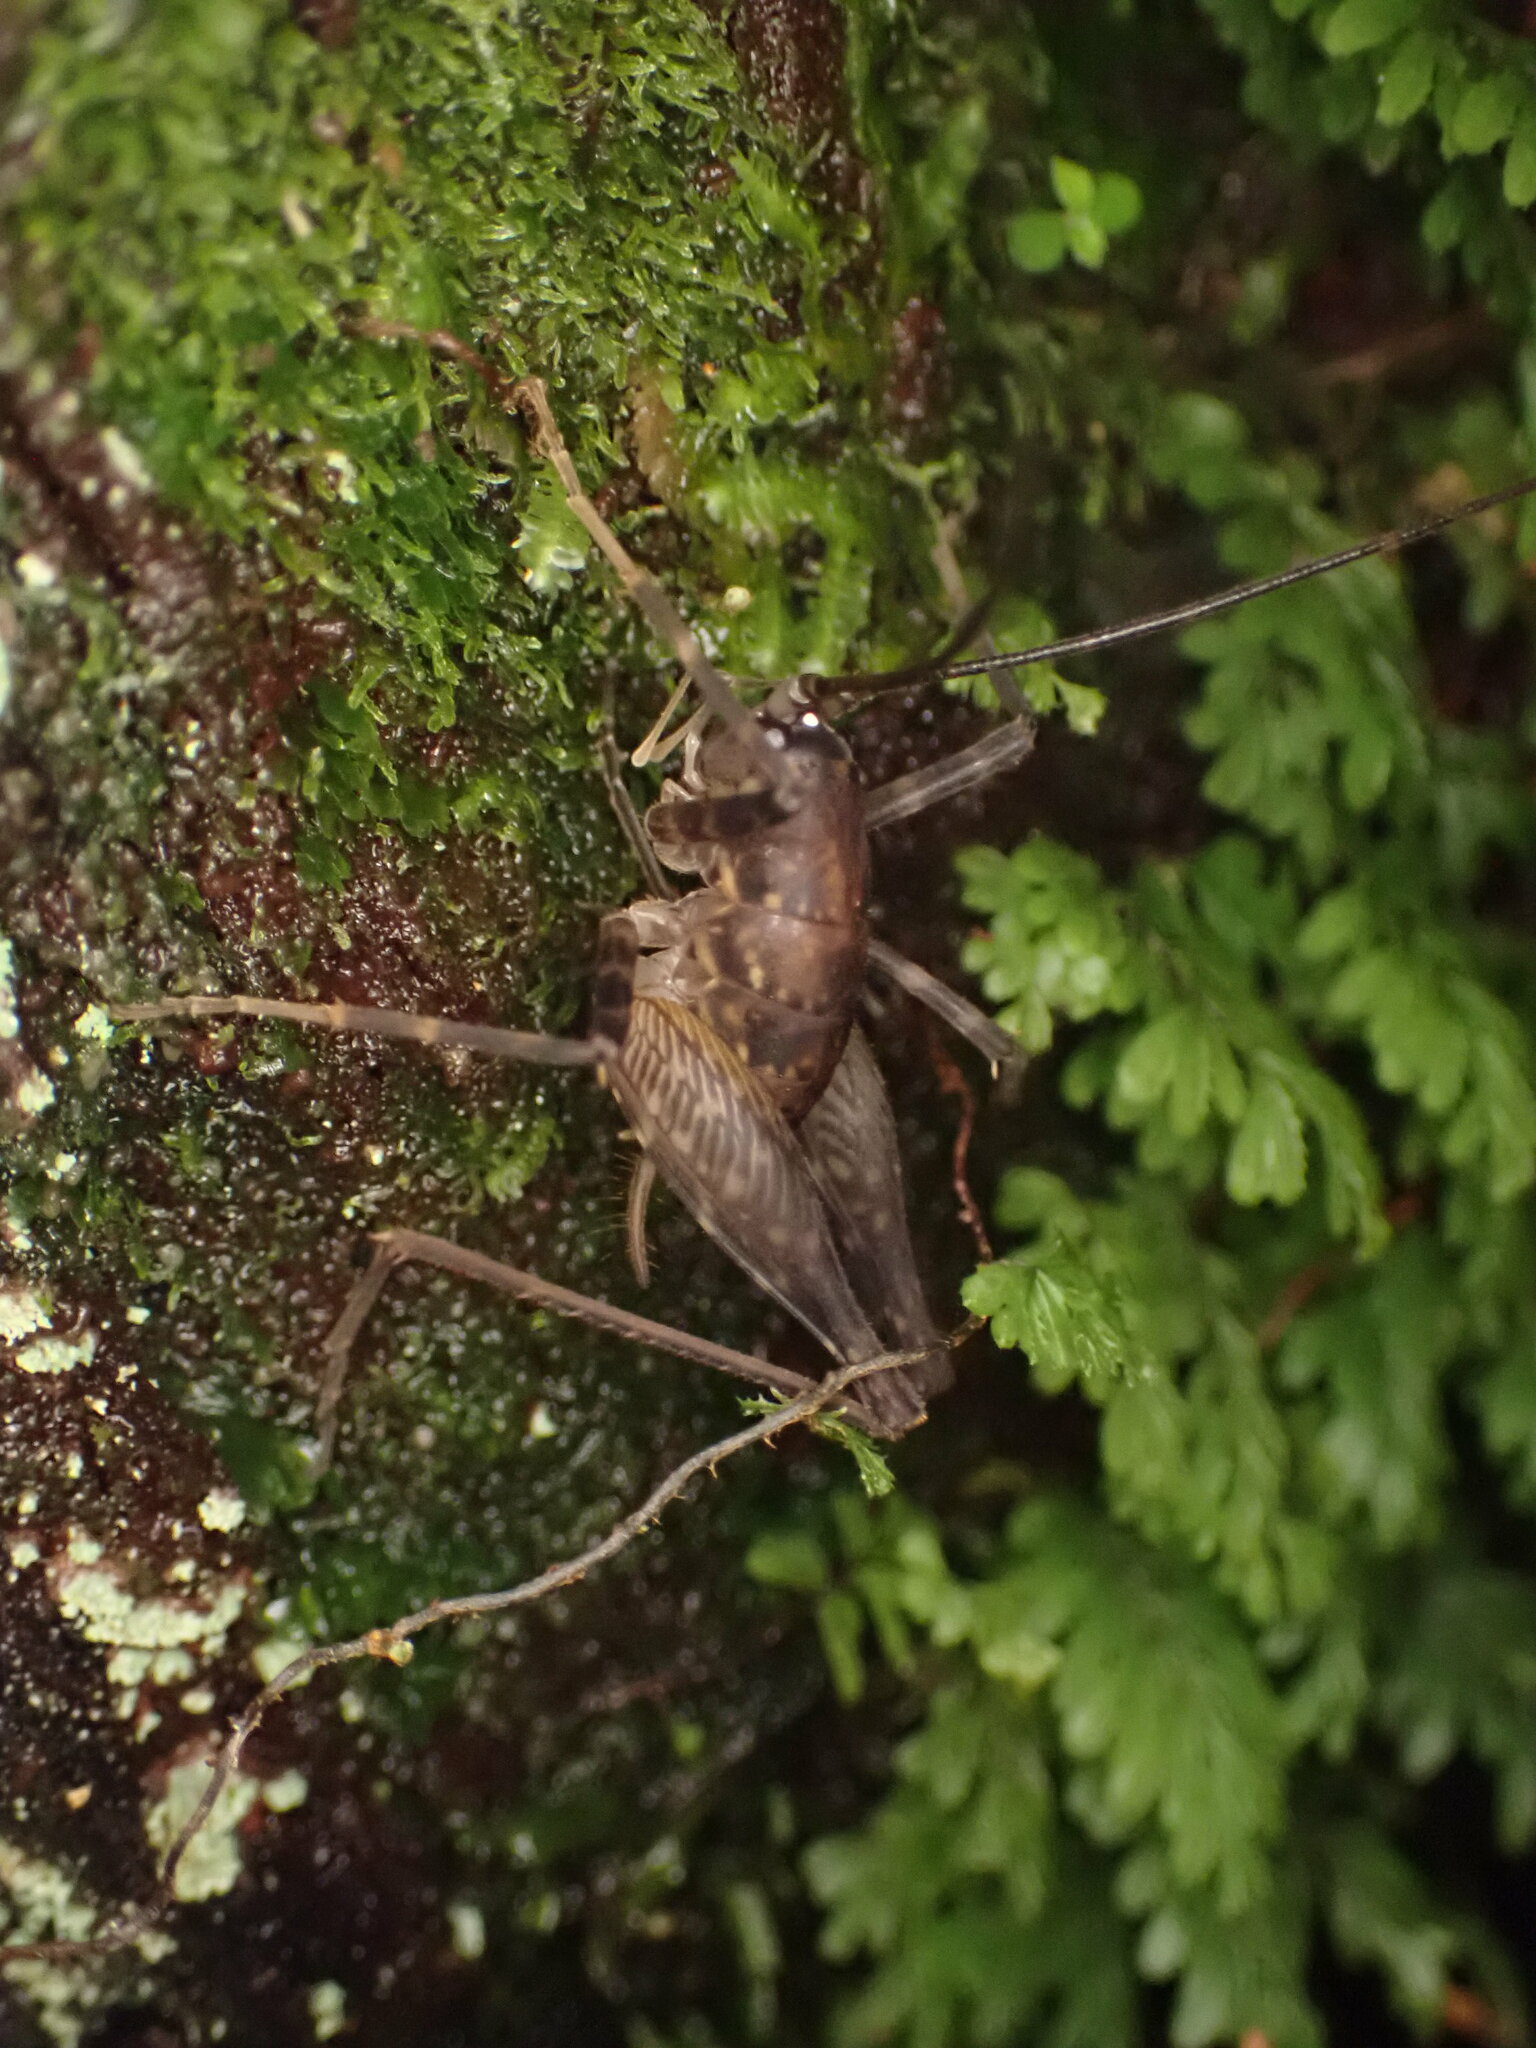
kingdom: Animalia
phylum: Arthropoda
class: Insecta
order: Orthoptera
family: Rhaphidophoridae
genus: Miotopus
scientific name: Miotopus diversus
